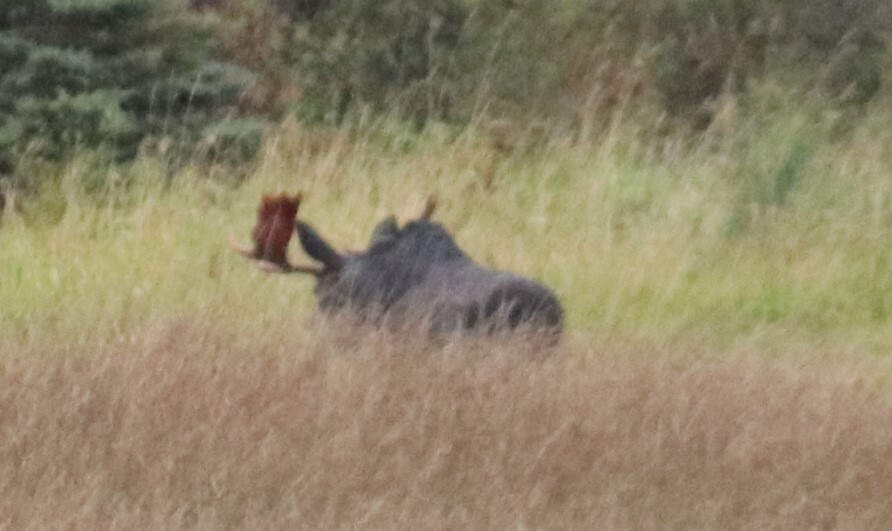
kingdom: Animalia
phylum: Chordata
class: Mammalia
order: Artiodactyla
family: Cervidae
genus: Alces
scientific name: Alces alces
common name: Moose
